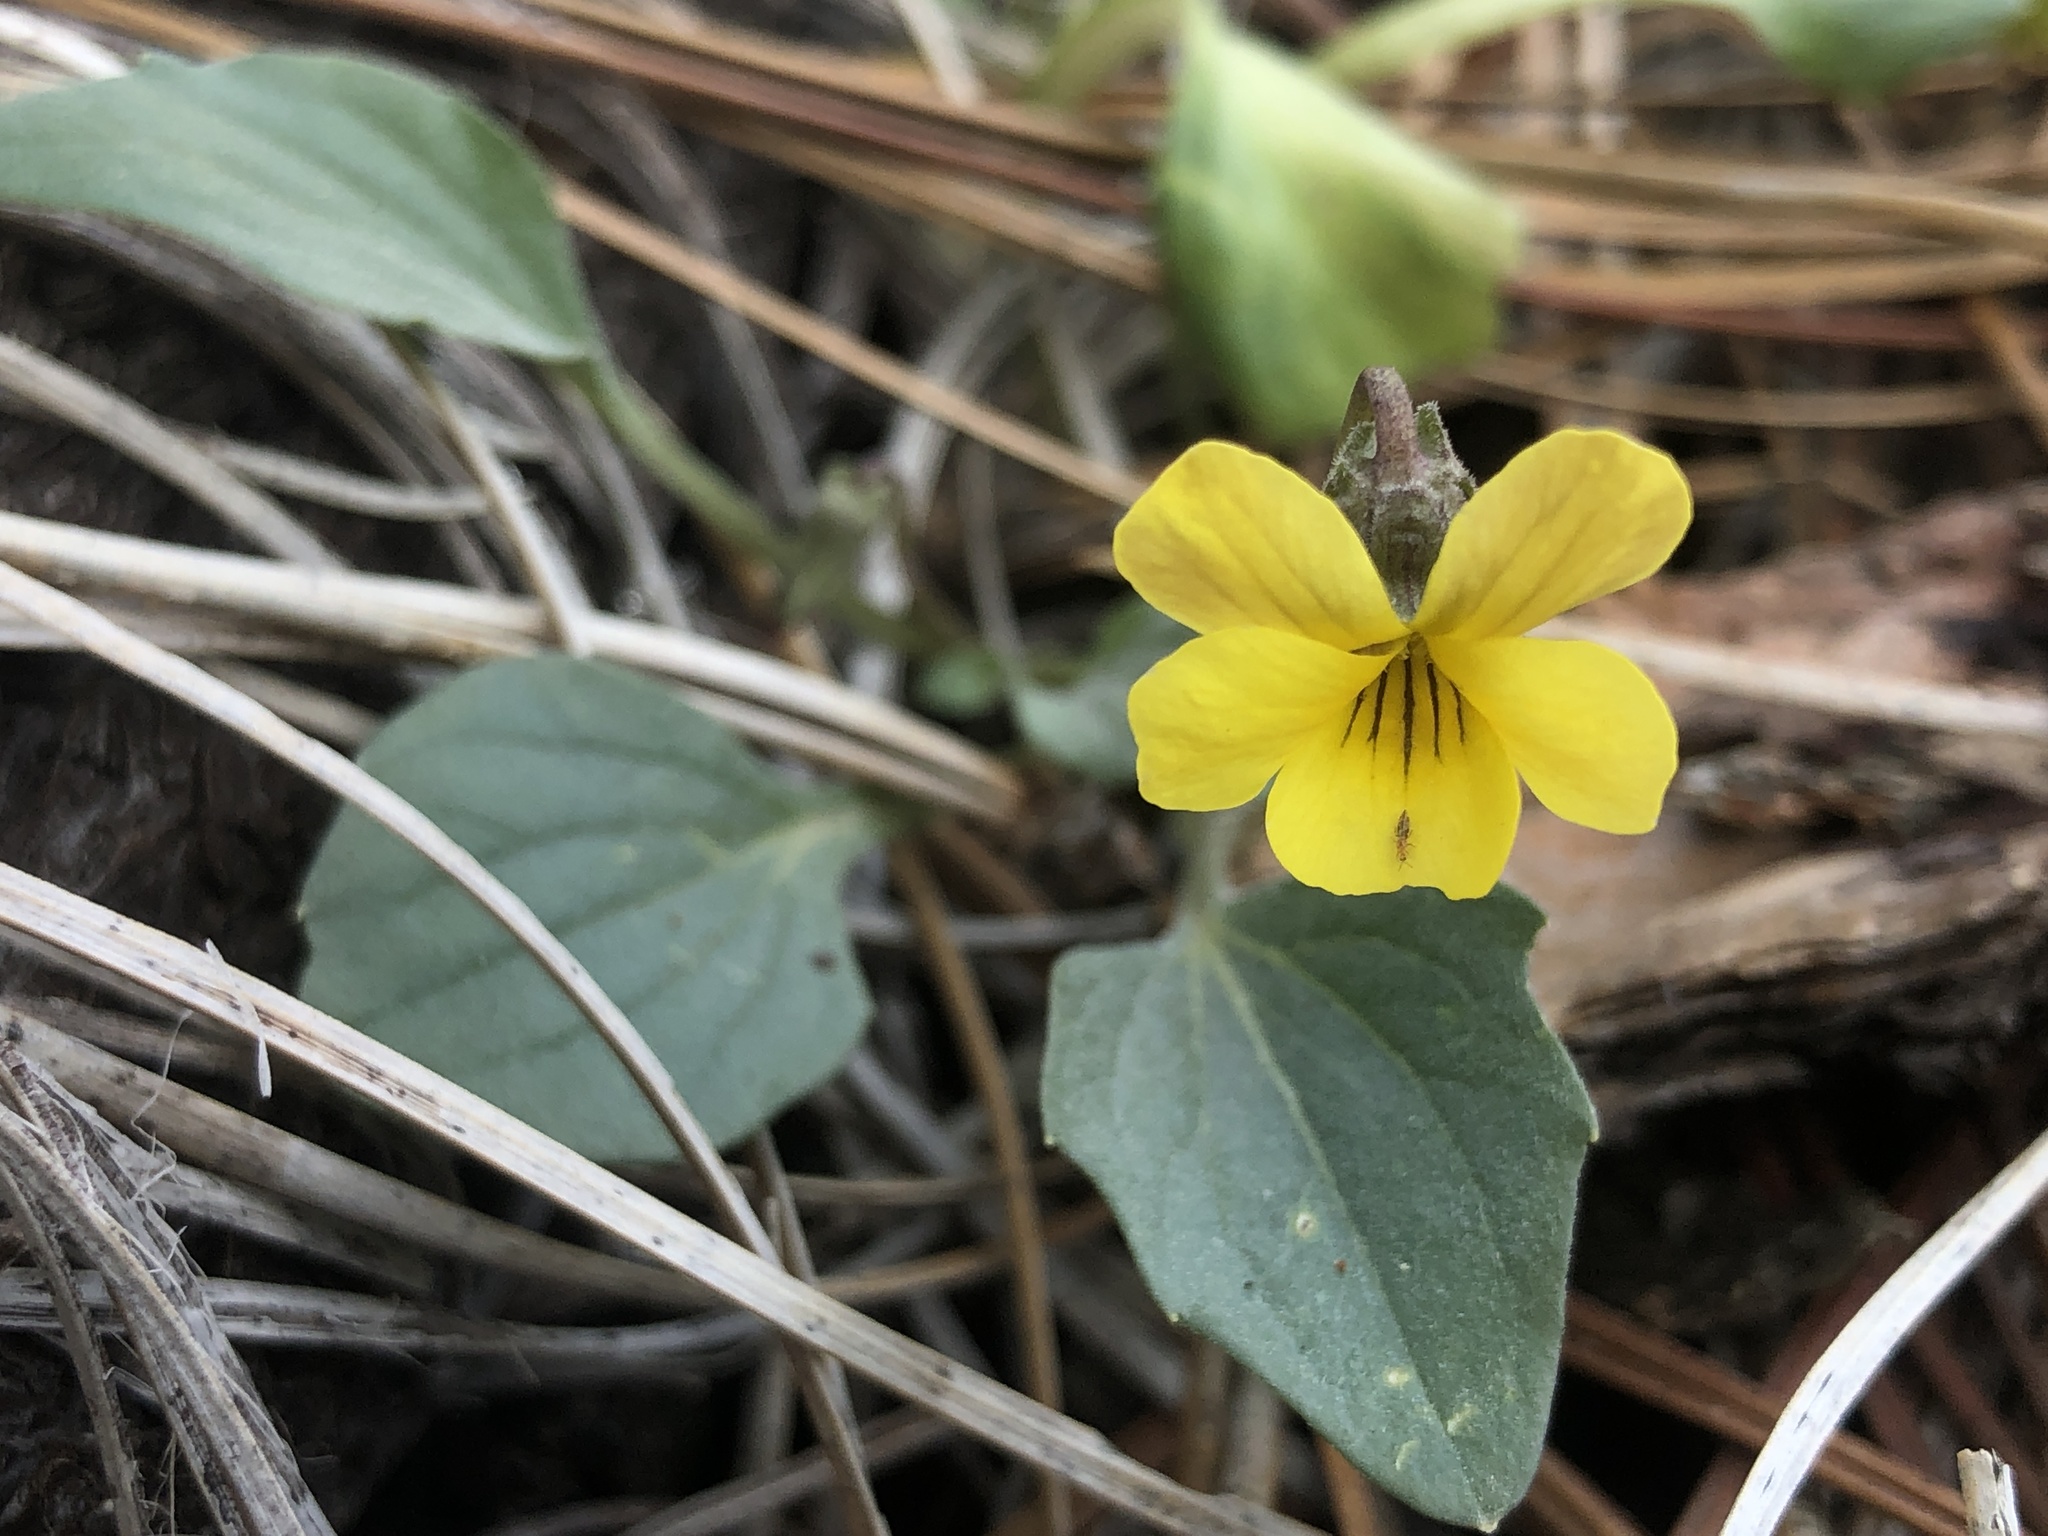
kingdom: Plantae
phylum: Tracheophyta
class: Magnoliopsida
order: Malpighiales
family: Violaceae
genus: Viola
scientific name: Viola purpurea
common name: Pine violet
